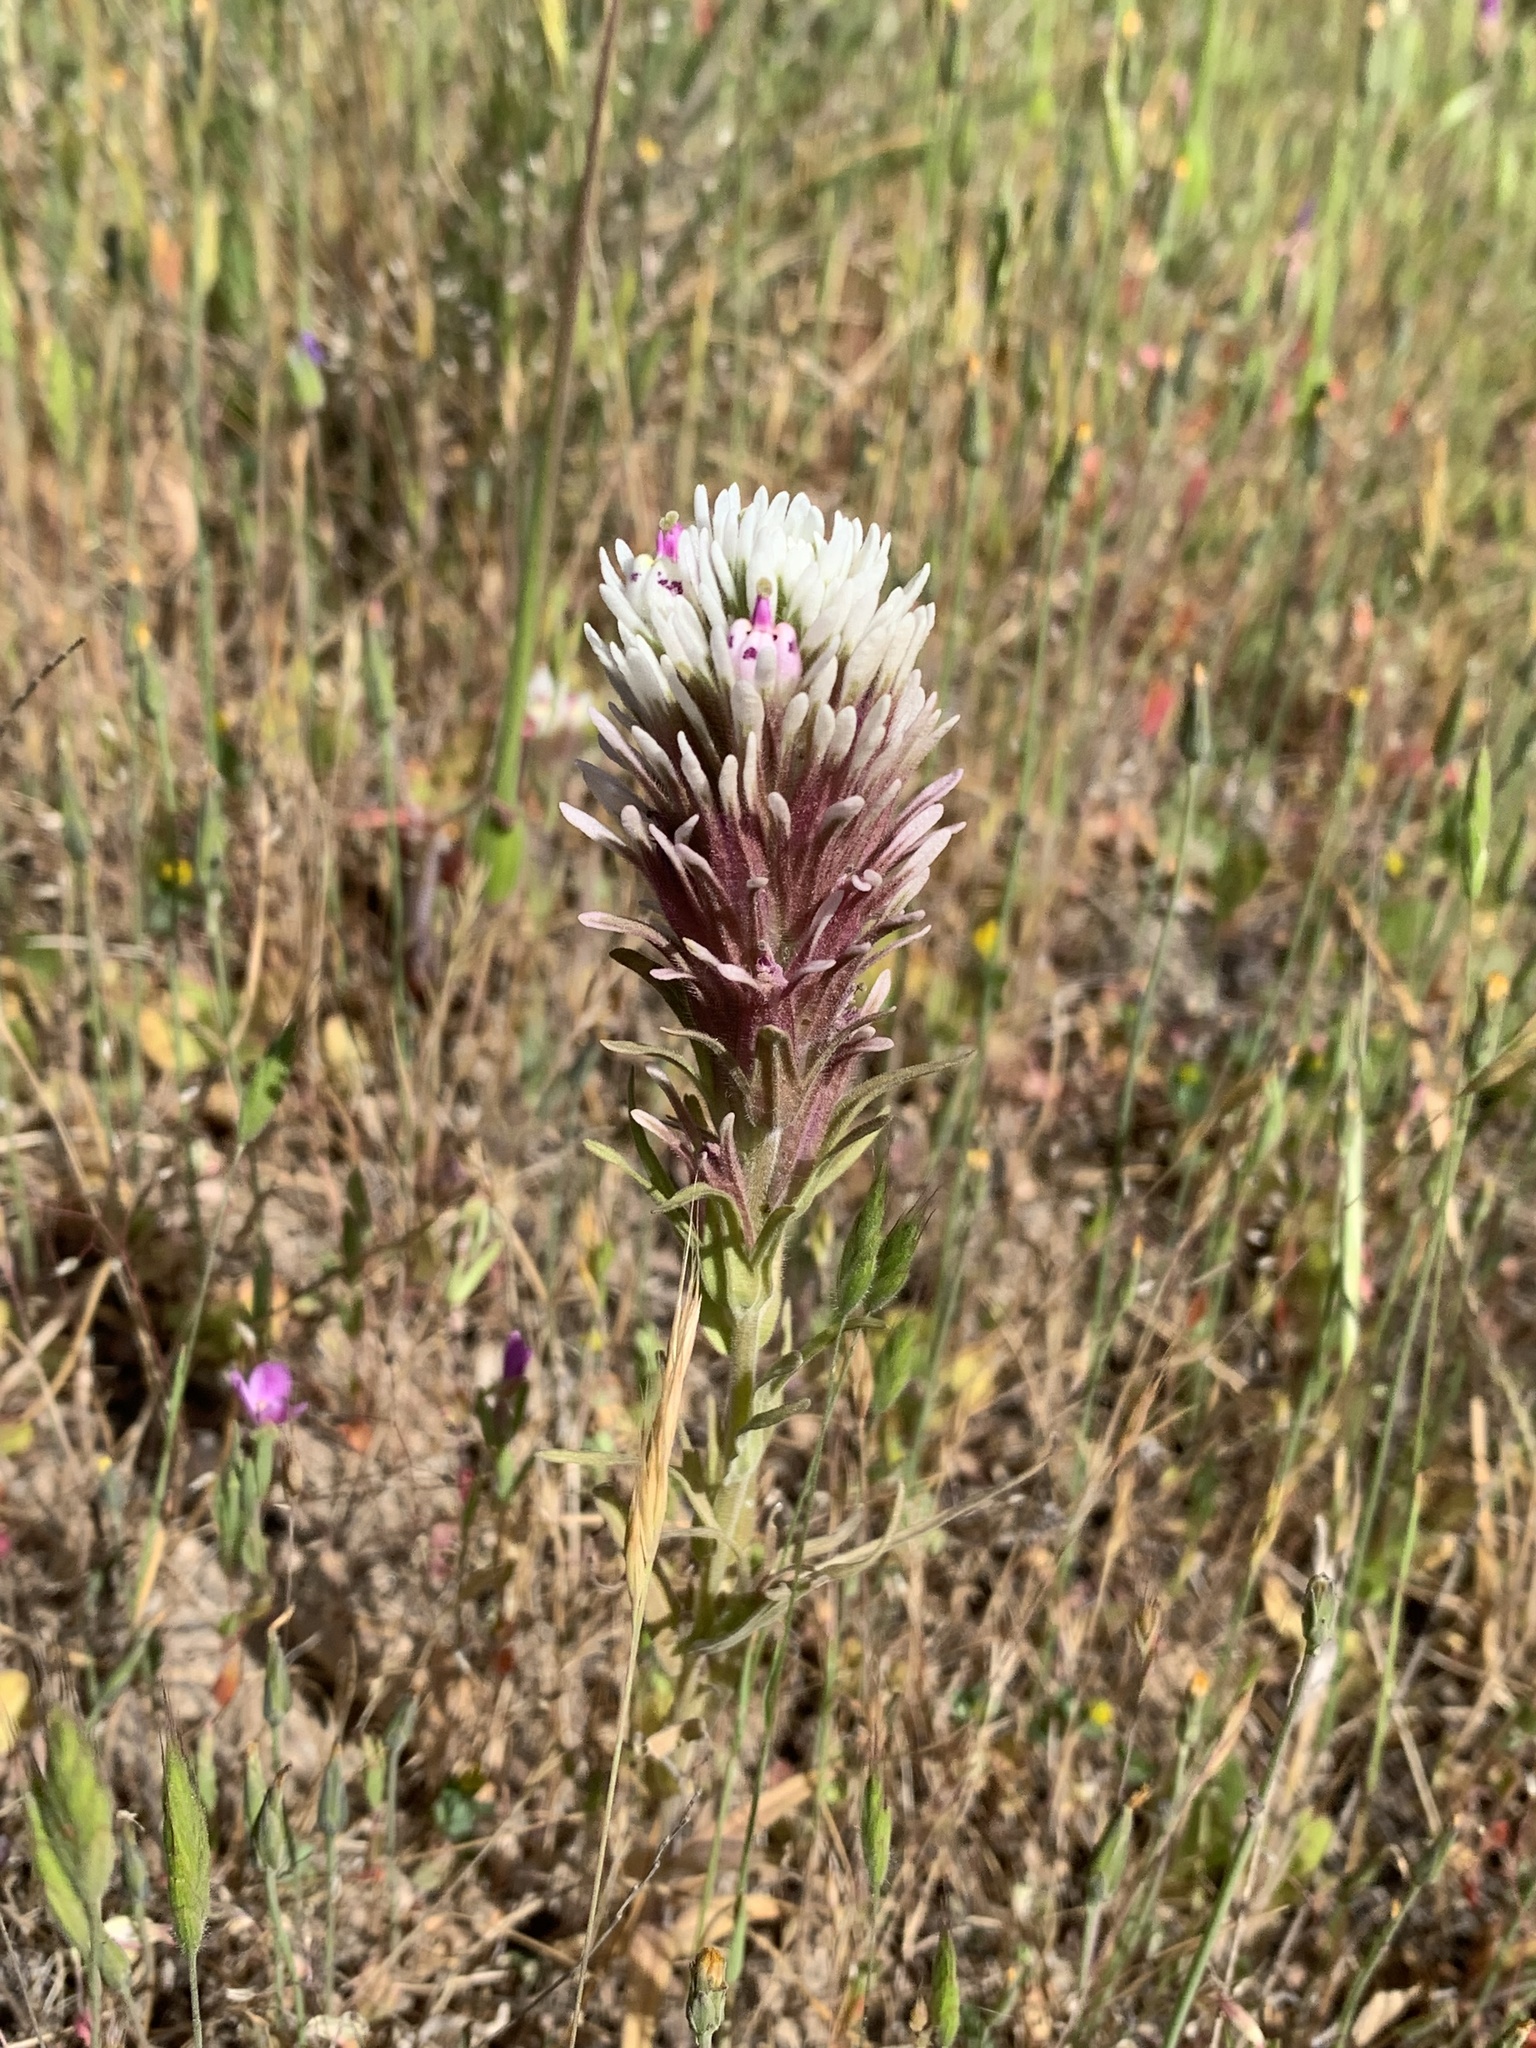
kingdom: Plantae
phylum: Tracheophyta
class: Magnoliopsida
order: Lamiales
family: Orobanchaceae
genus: Castilleja
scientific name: Castilleja densiflora
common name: Dense-flower indian paintbrush
